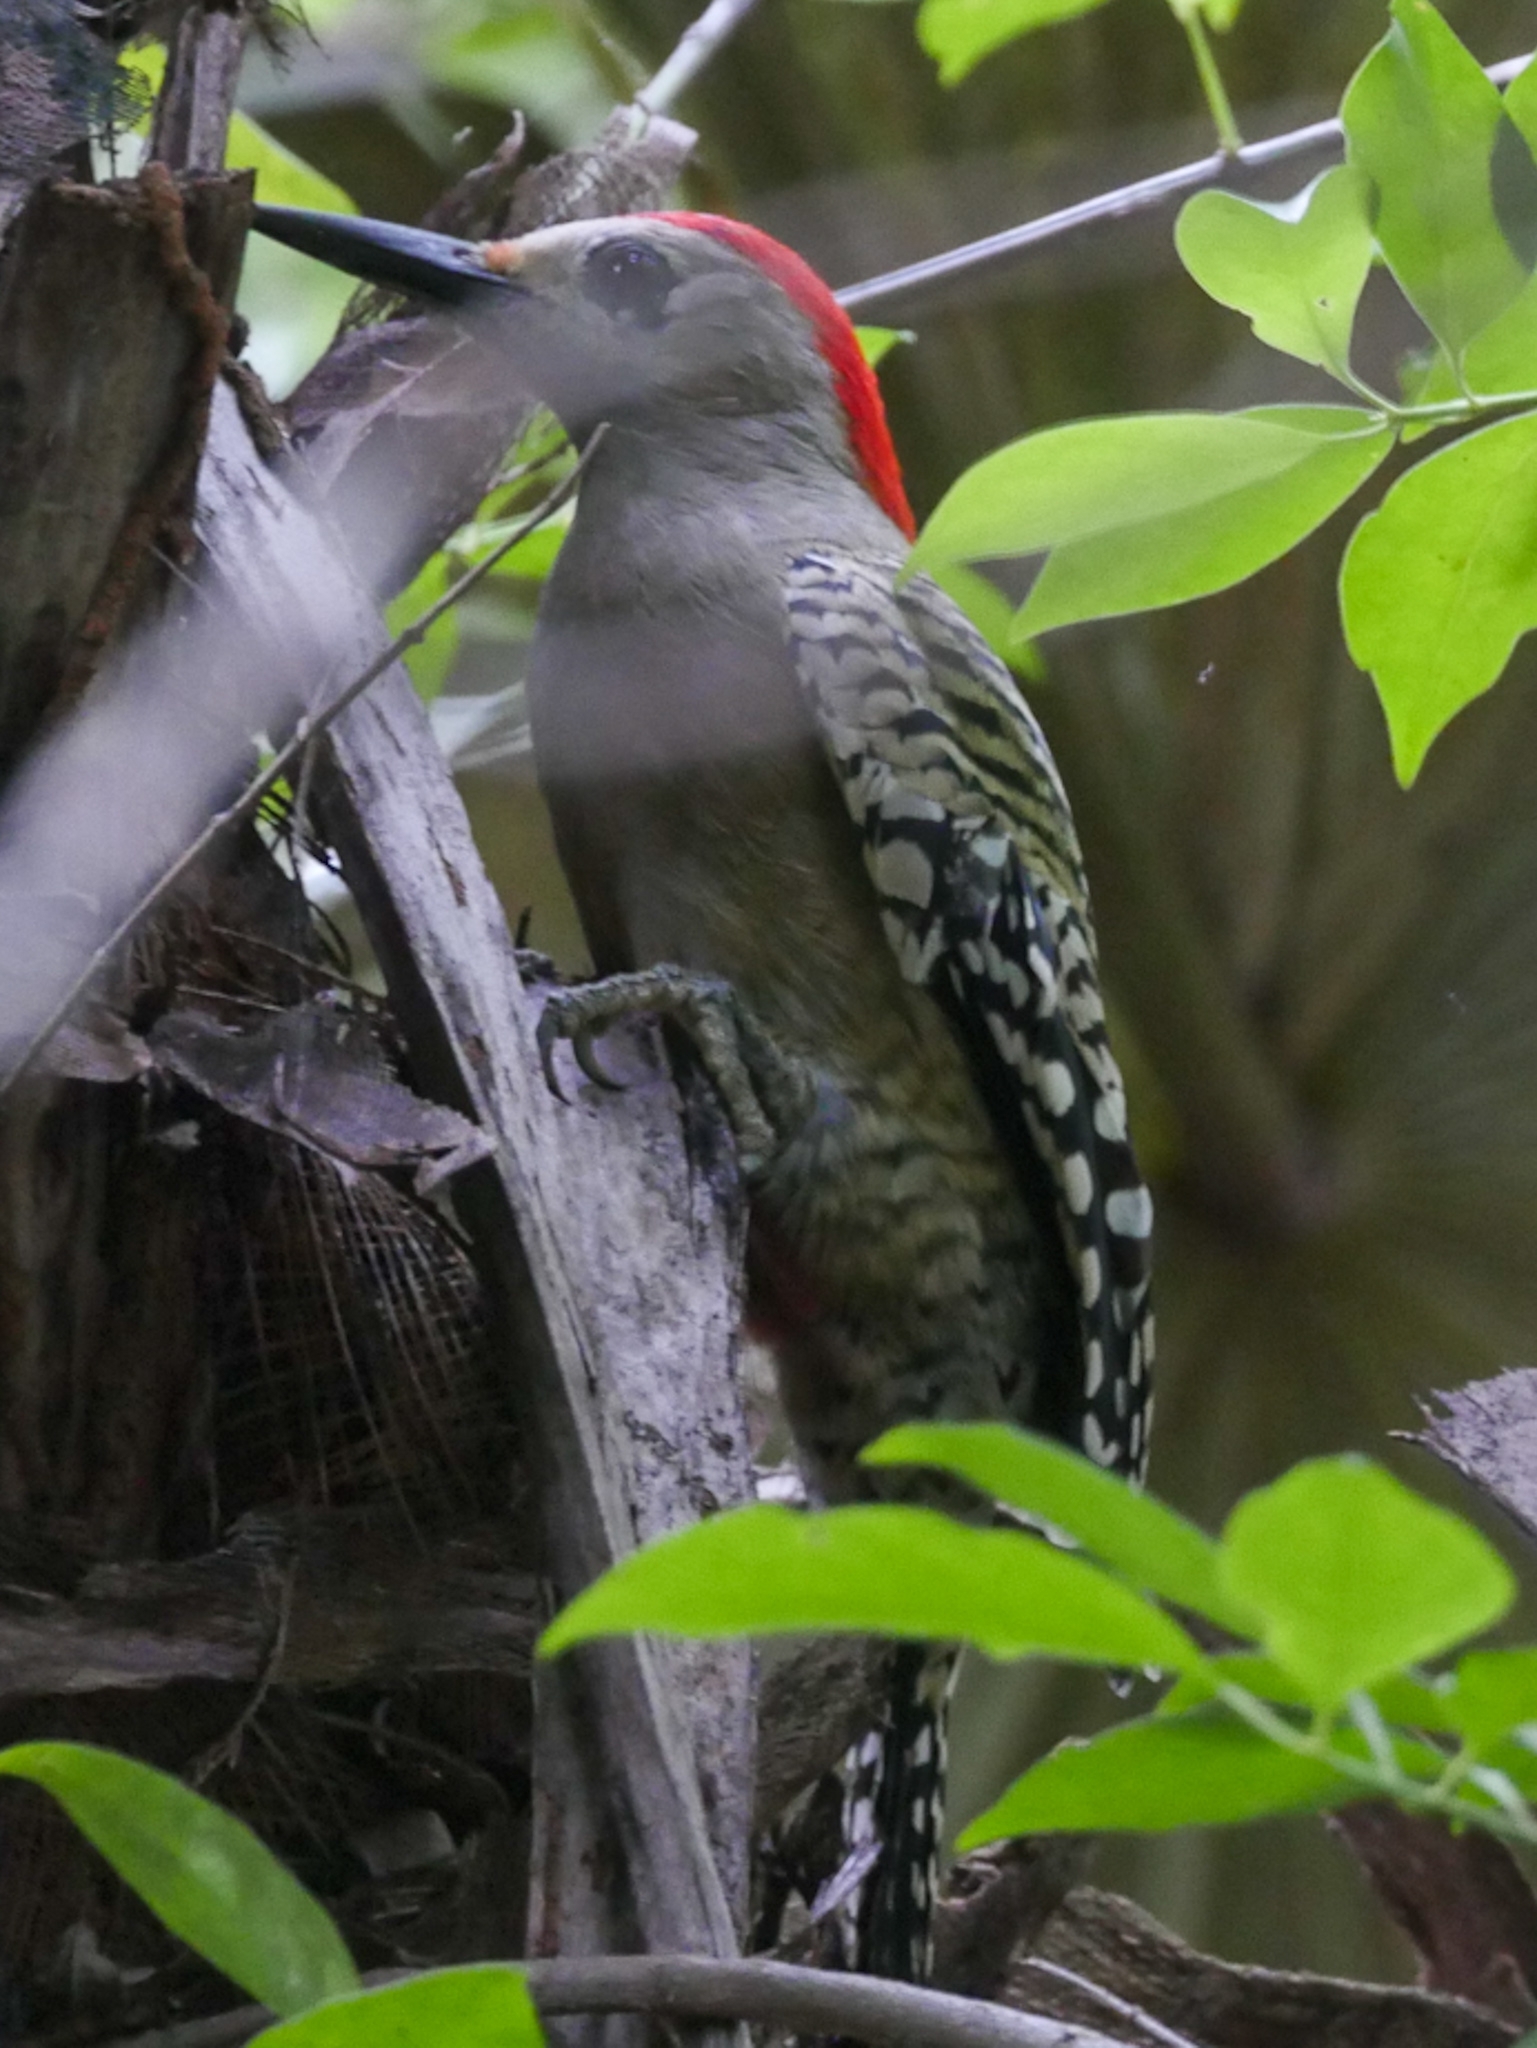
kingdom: Animalia
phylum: Chordata
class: Aves
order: Piciformes
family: Picidae
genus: Melanerpes
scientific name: Melanerpes superciliaris
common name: West indian woodpecker
